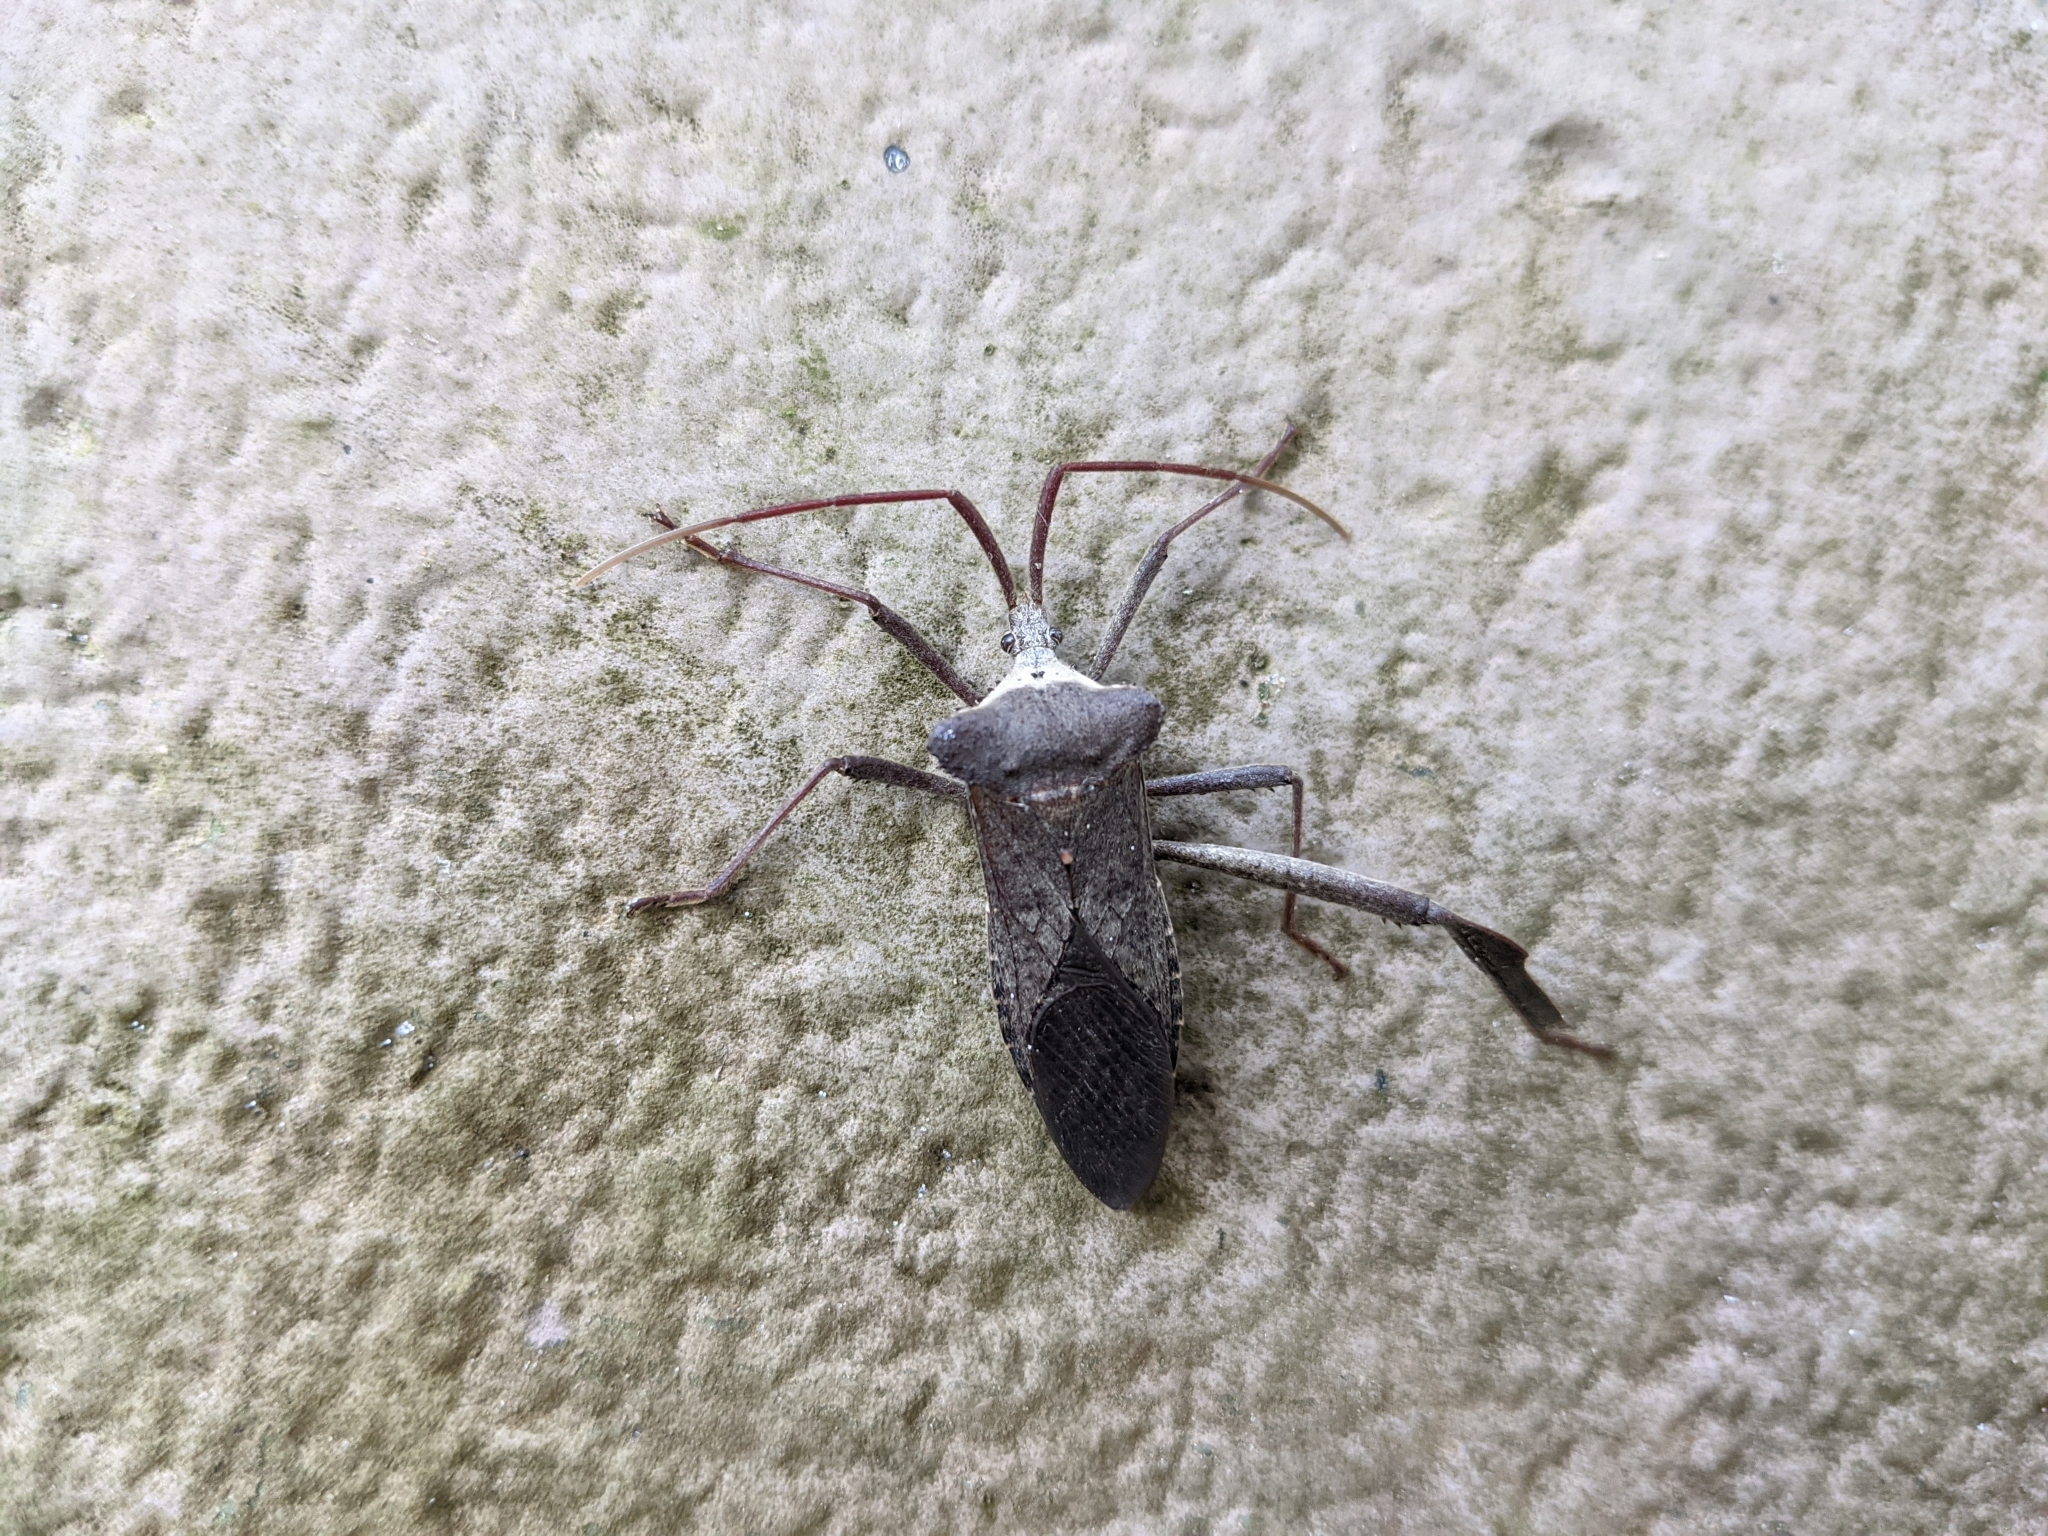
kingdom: Animalia
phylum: Arthropoda
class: Insecta
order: Hemiptera
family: Coreidae
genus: Acanthocephala
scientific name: Acanthocephala declivis
